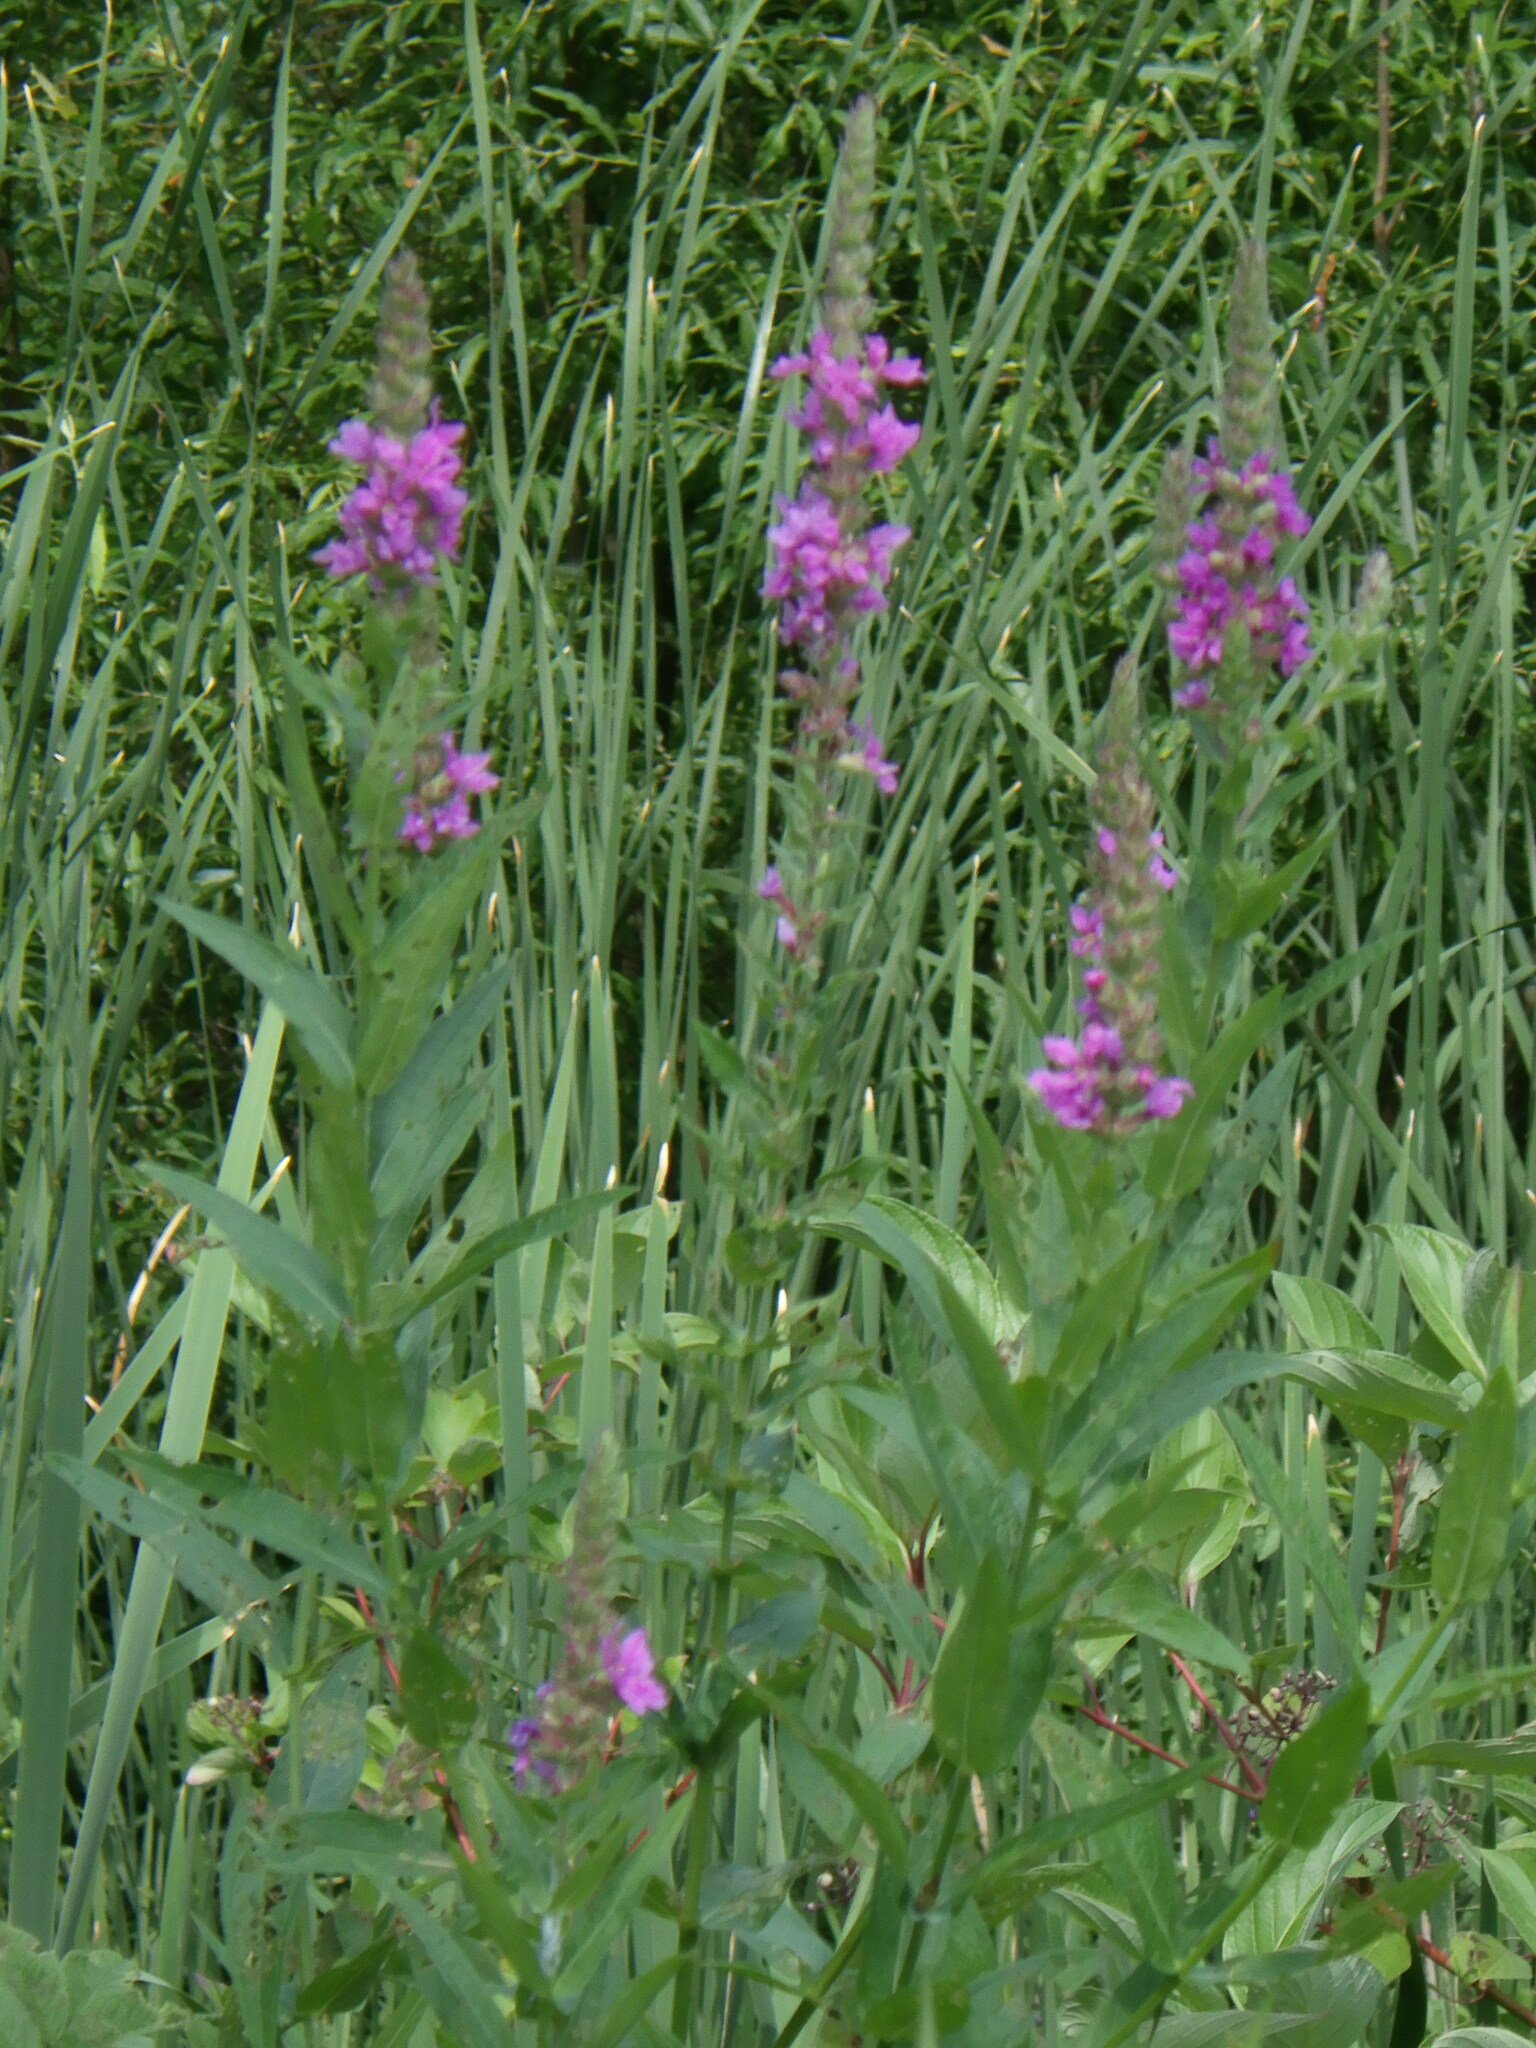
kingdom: Plantae
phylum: Tracheophyta
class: Magnoliopsida
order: Myrtales
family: Lythraceae
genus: Lythrum
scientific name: Lythrum salicaria
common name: Purple loosestrife
